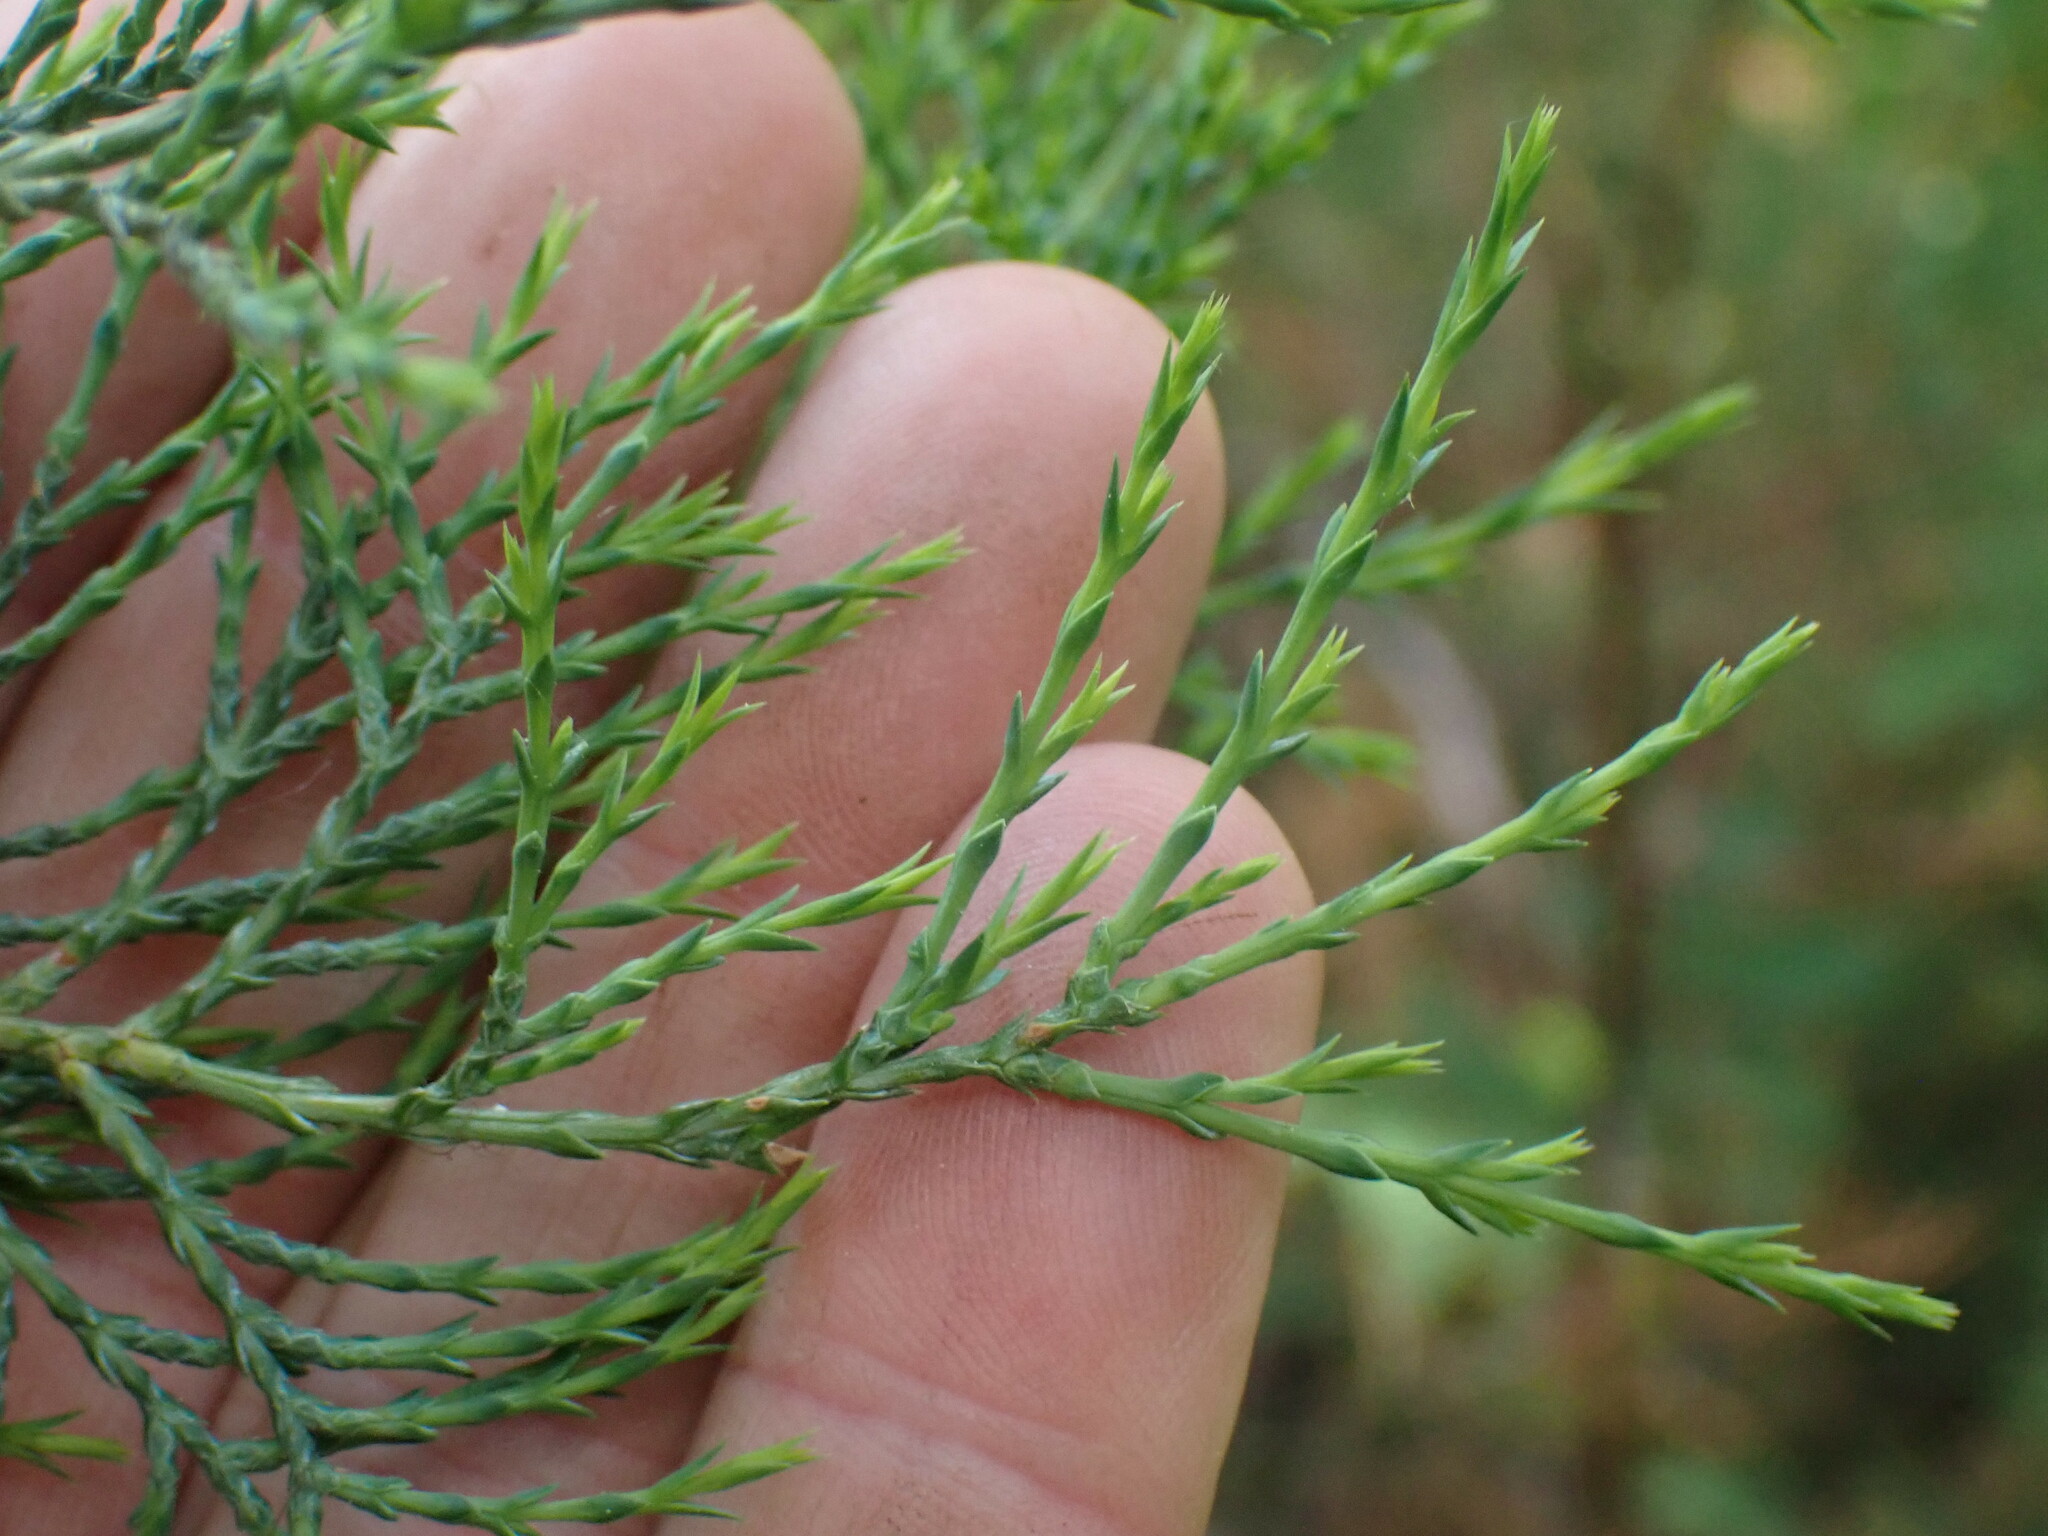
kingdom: Plantae
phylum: Tracheophyta
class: Pinopsida
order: Pinales
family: Cupressaceae
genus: Juniperus
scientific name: Juniperus scopulorum
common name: Rocky mountain juniper
